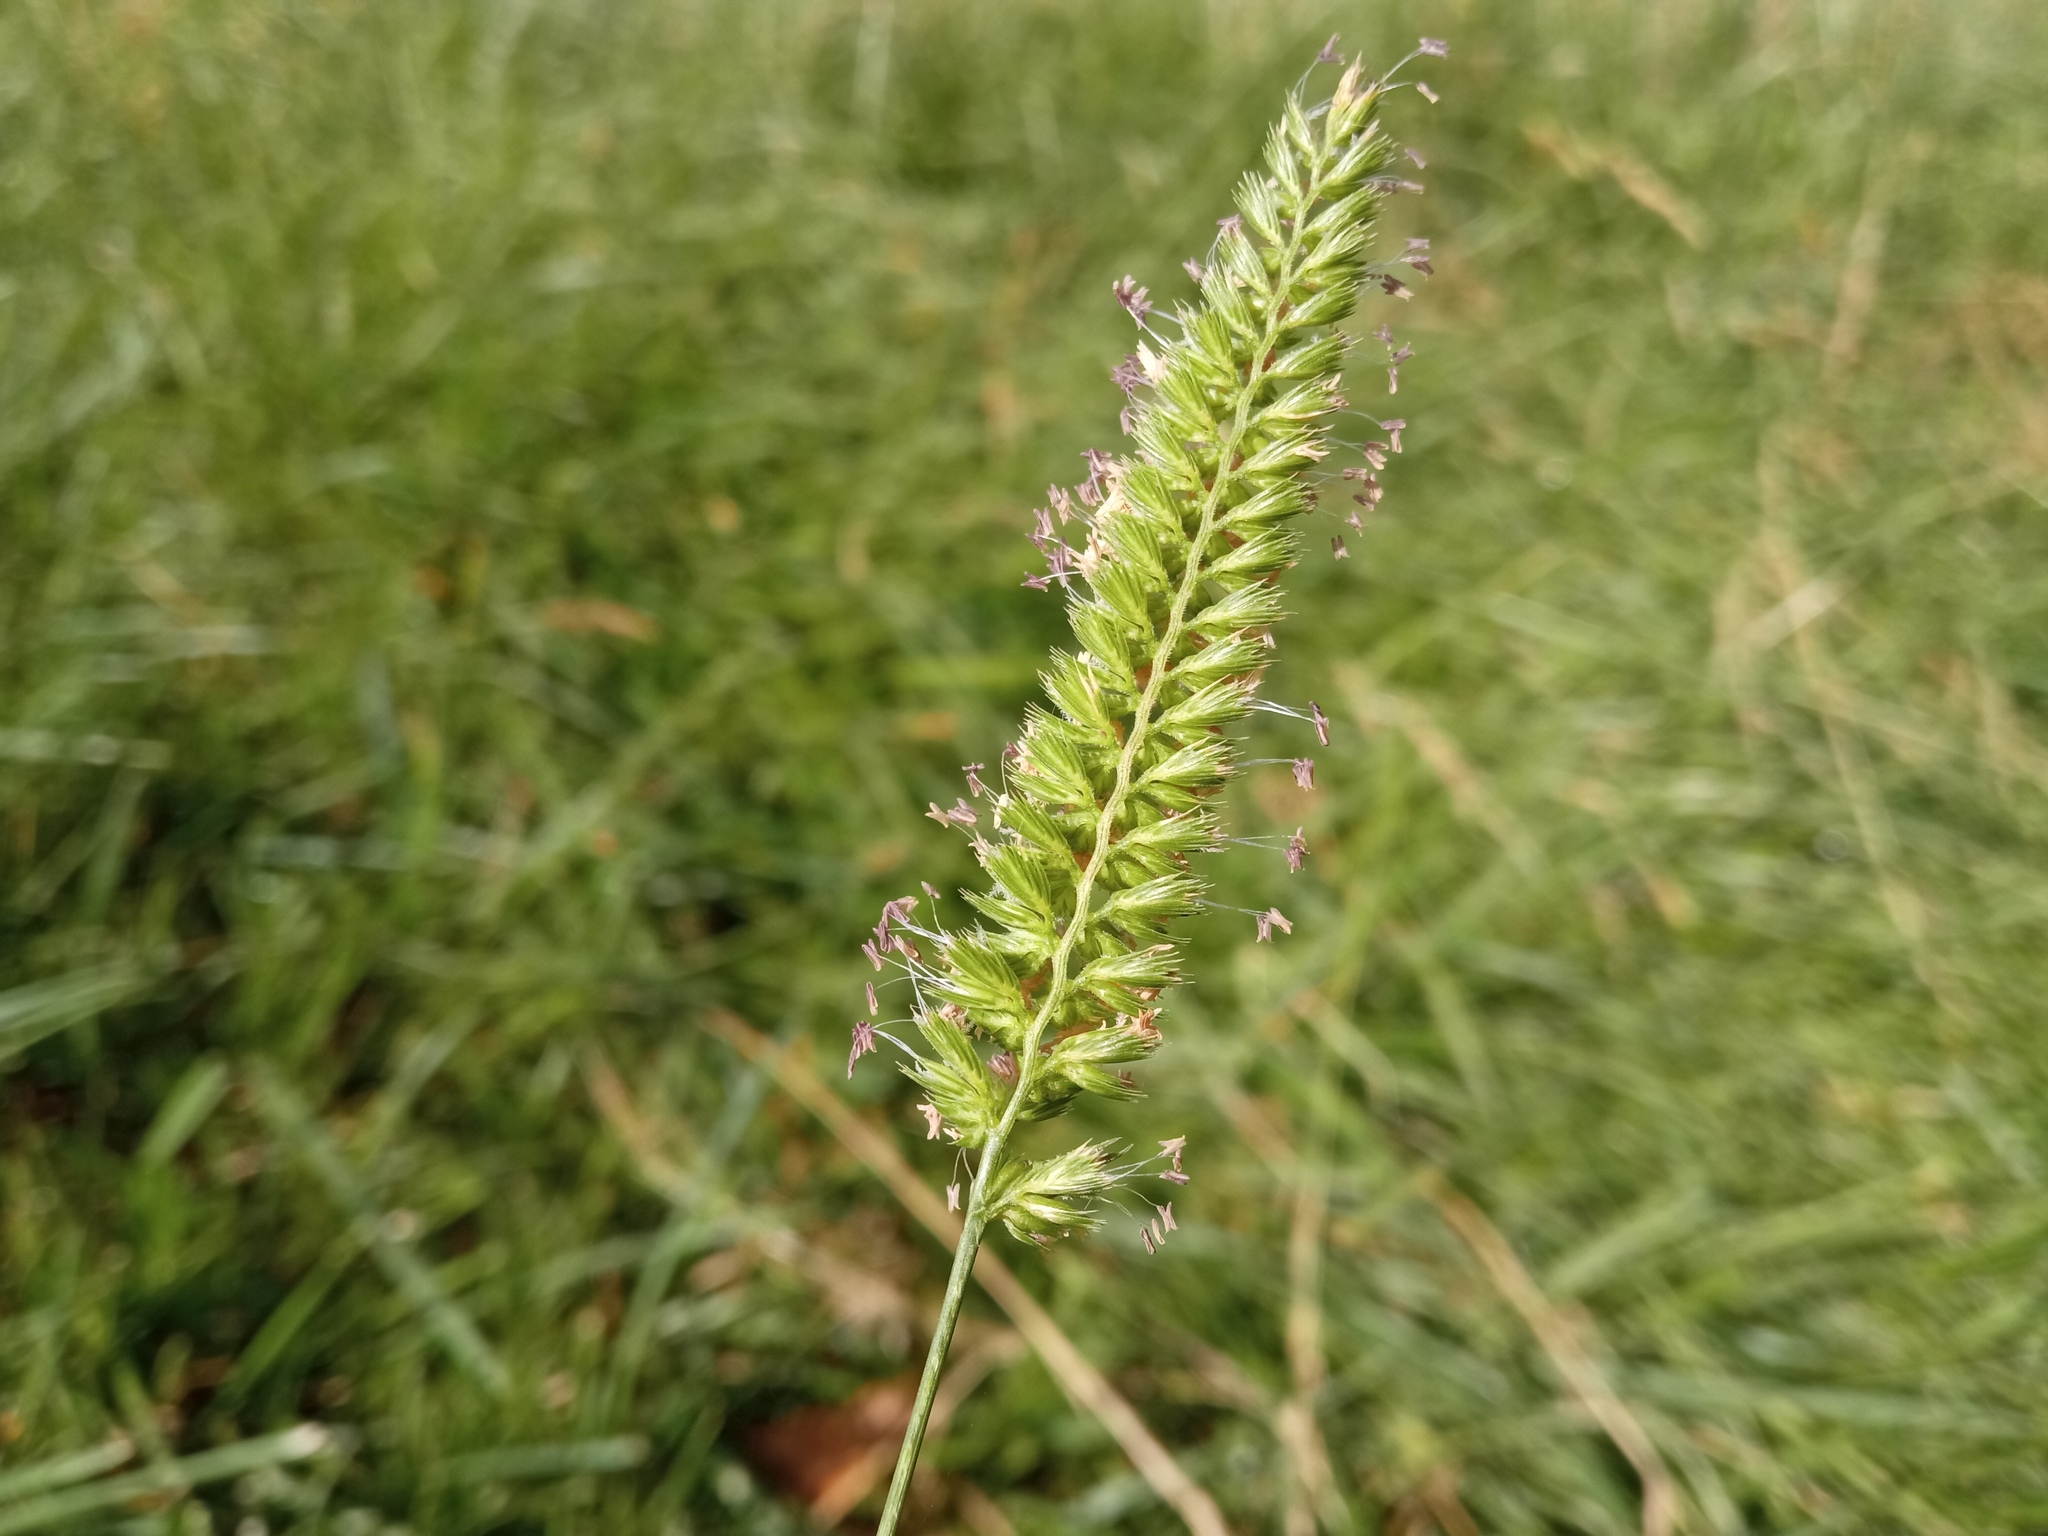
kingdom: Plantae
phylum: Tracheophyta
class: Liliopsida
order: Poales
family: Poaceae
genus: Cynosurus
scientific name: Cynosurus cristatus
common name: Crested dog's-tail
